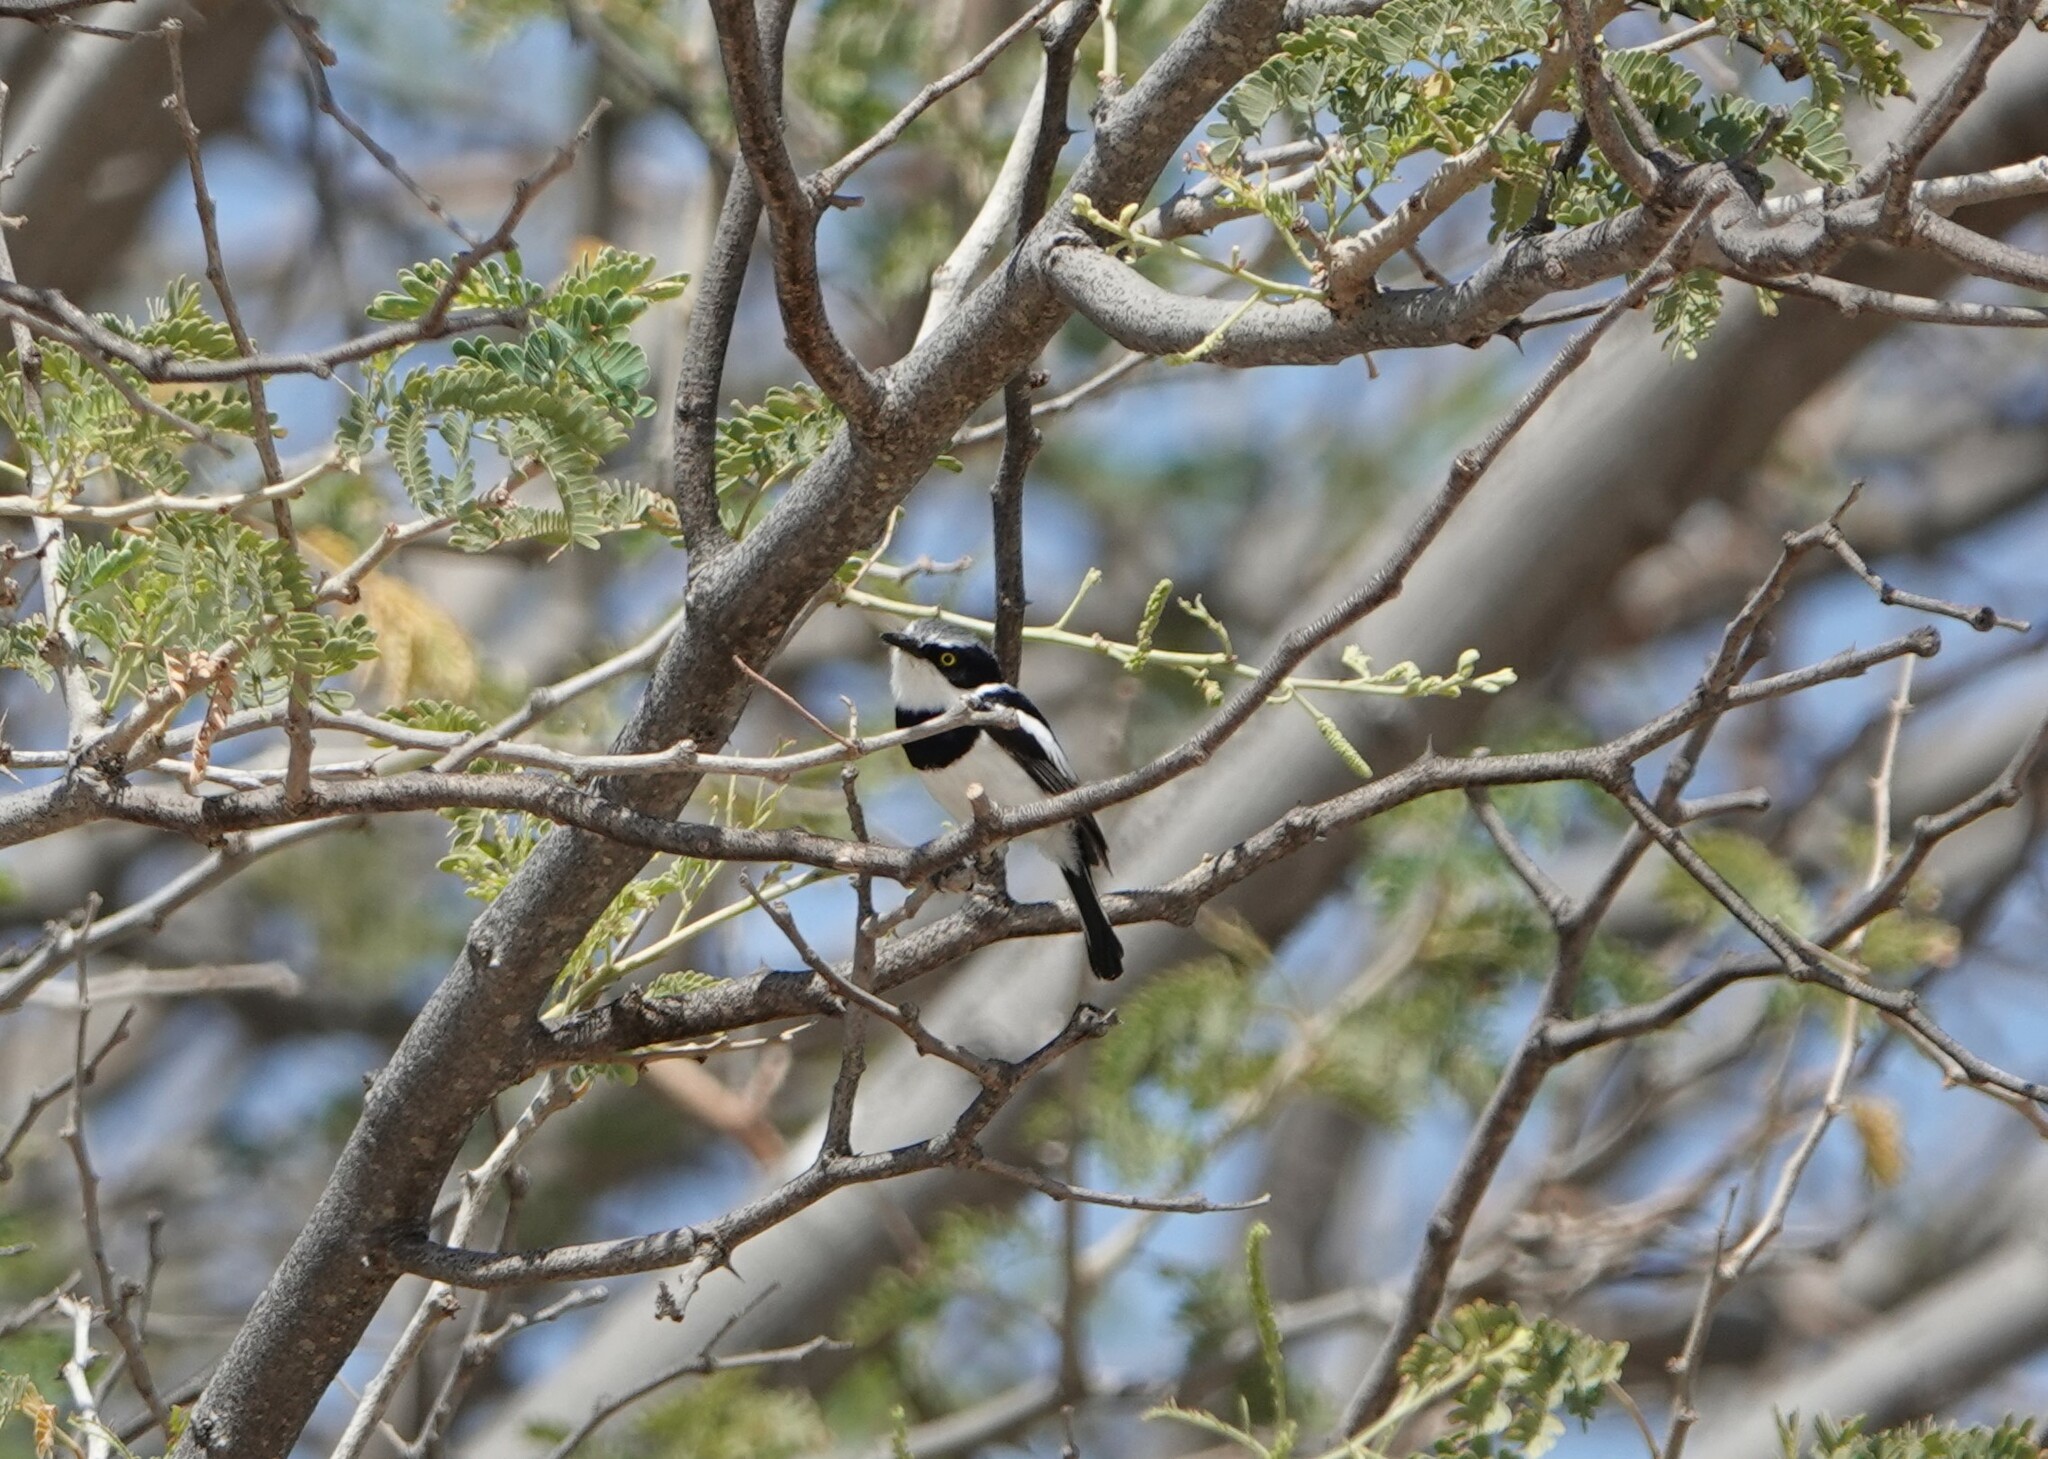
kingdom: Animalia
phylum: Chordata
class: Aves
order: Passeriformes
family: Platysteiridae
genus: Batis
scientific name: Batis pririt
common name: Pririt batis
